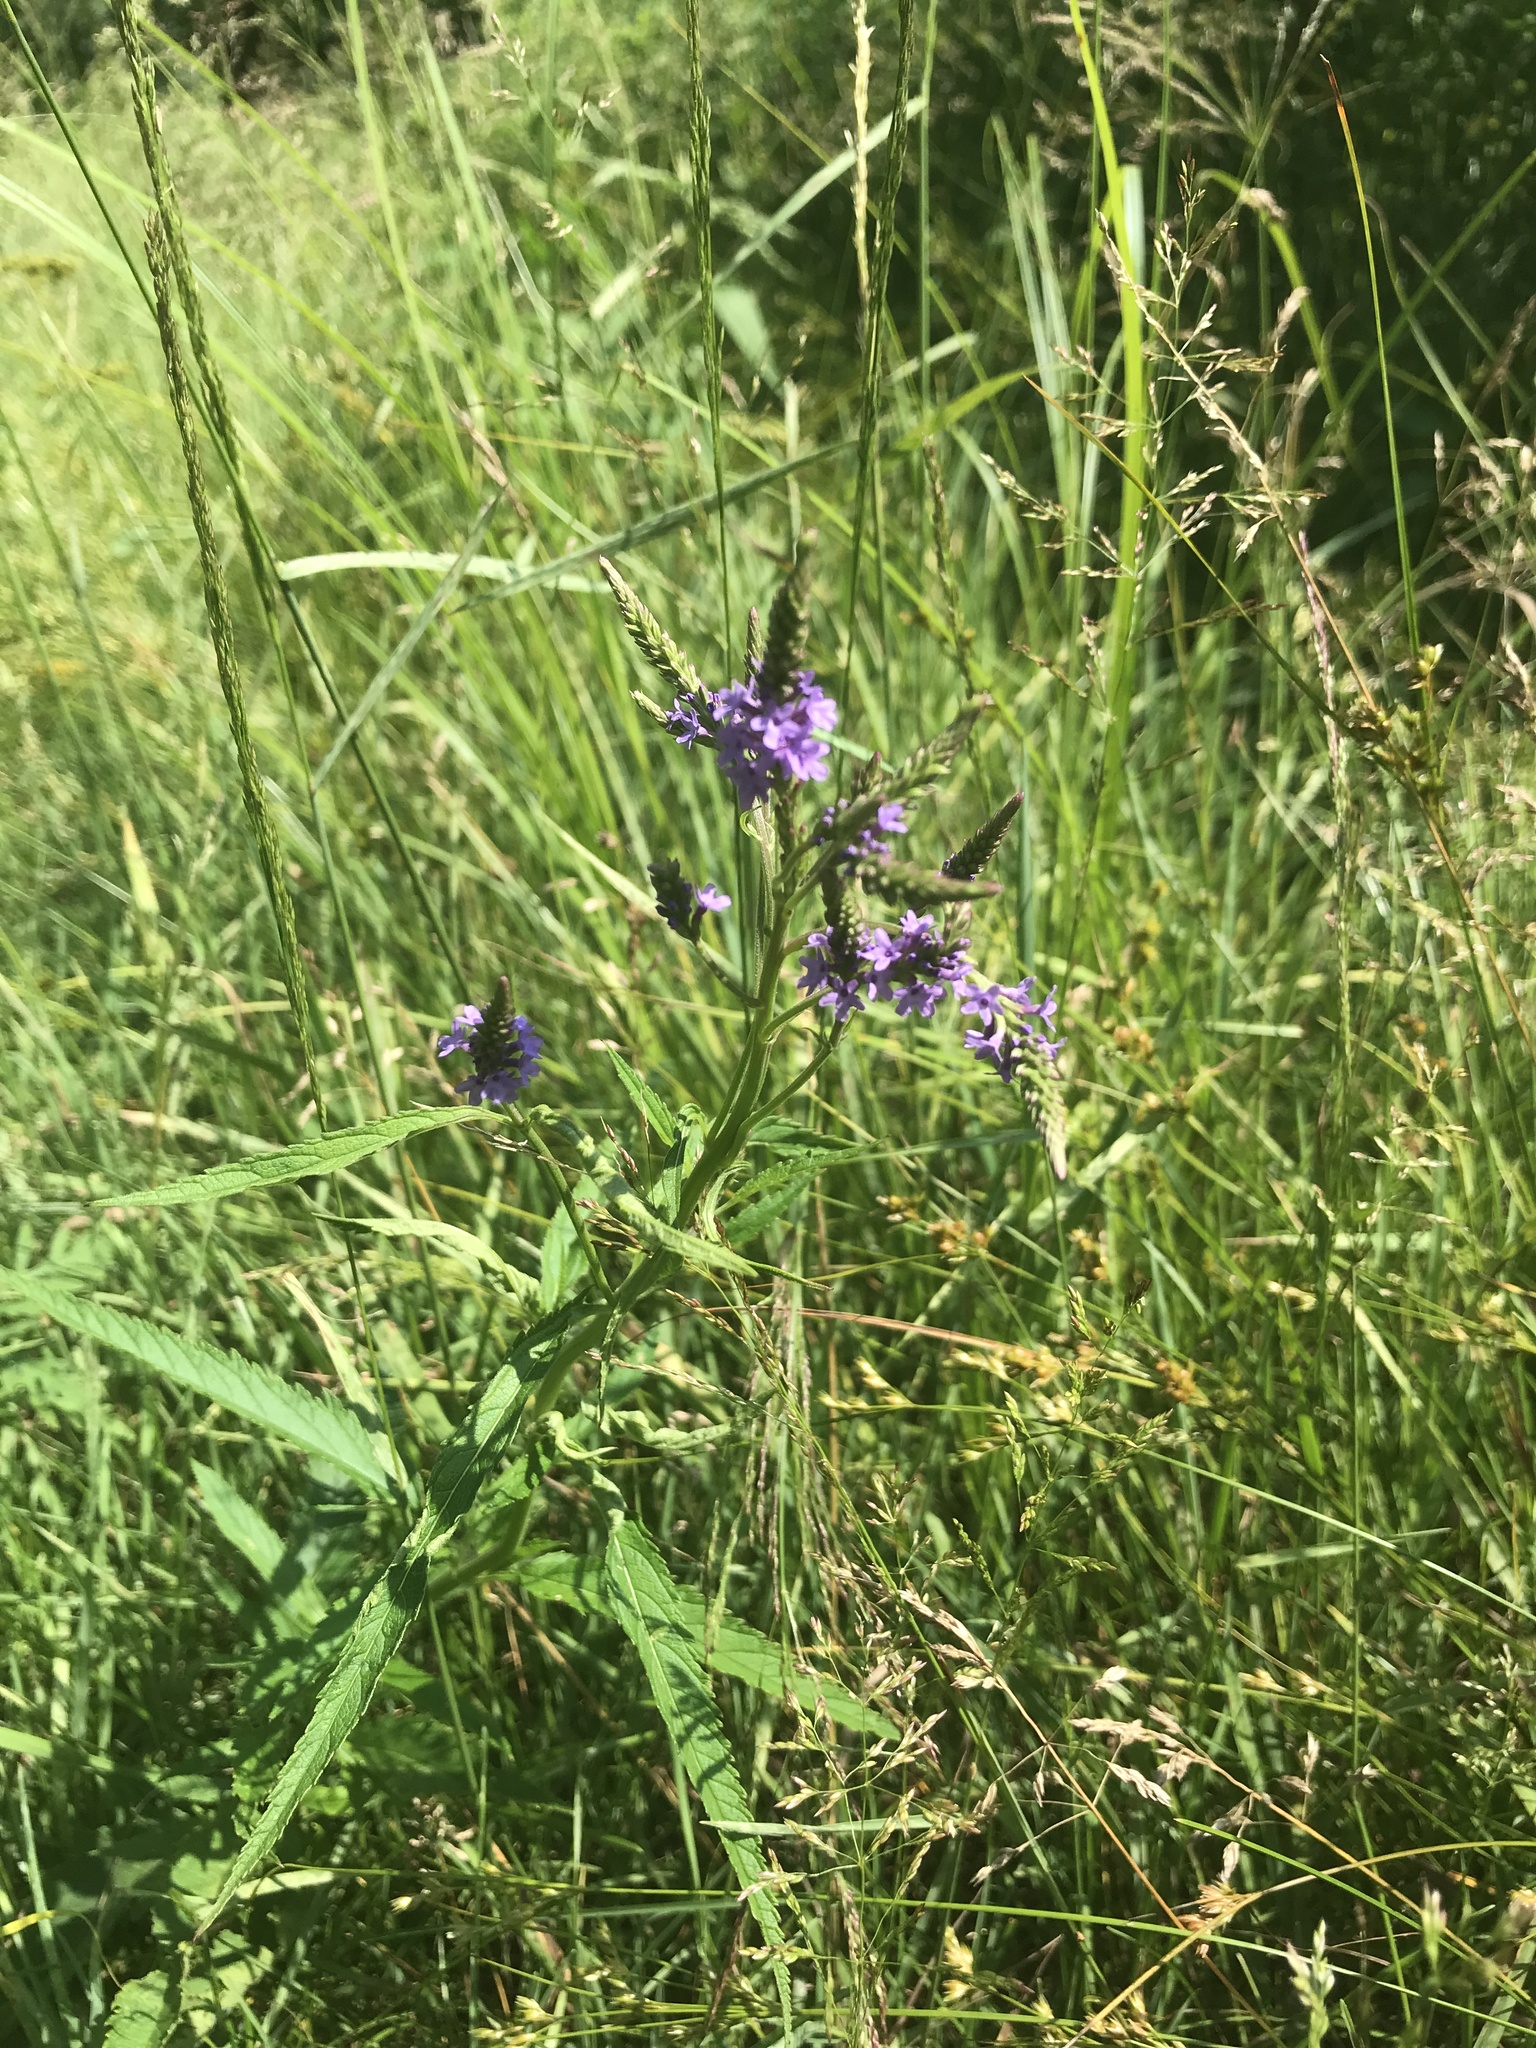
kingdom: Plantae
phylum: Tracheophyta
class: Magnoliopsida
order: Lamiales
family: Verbenaceae
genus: Verbena
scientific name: Verbena hastata
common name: American blue vervain
